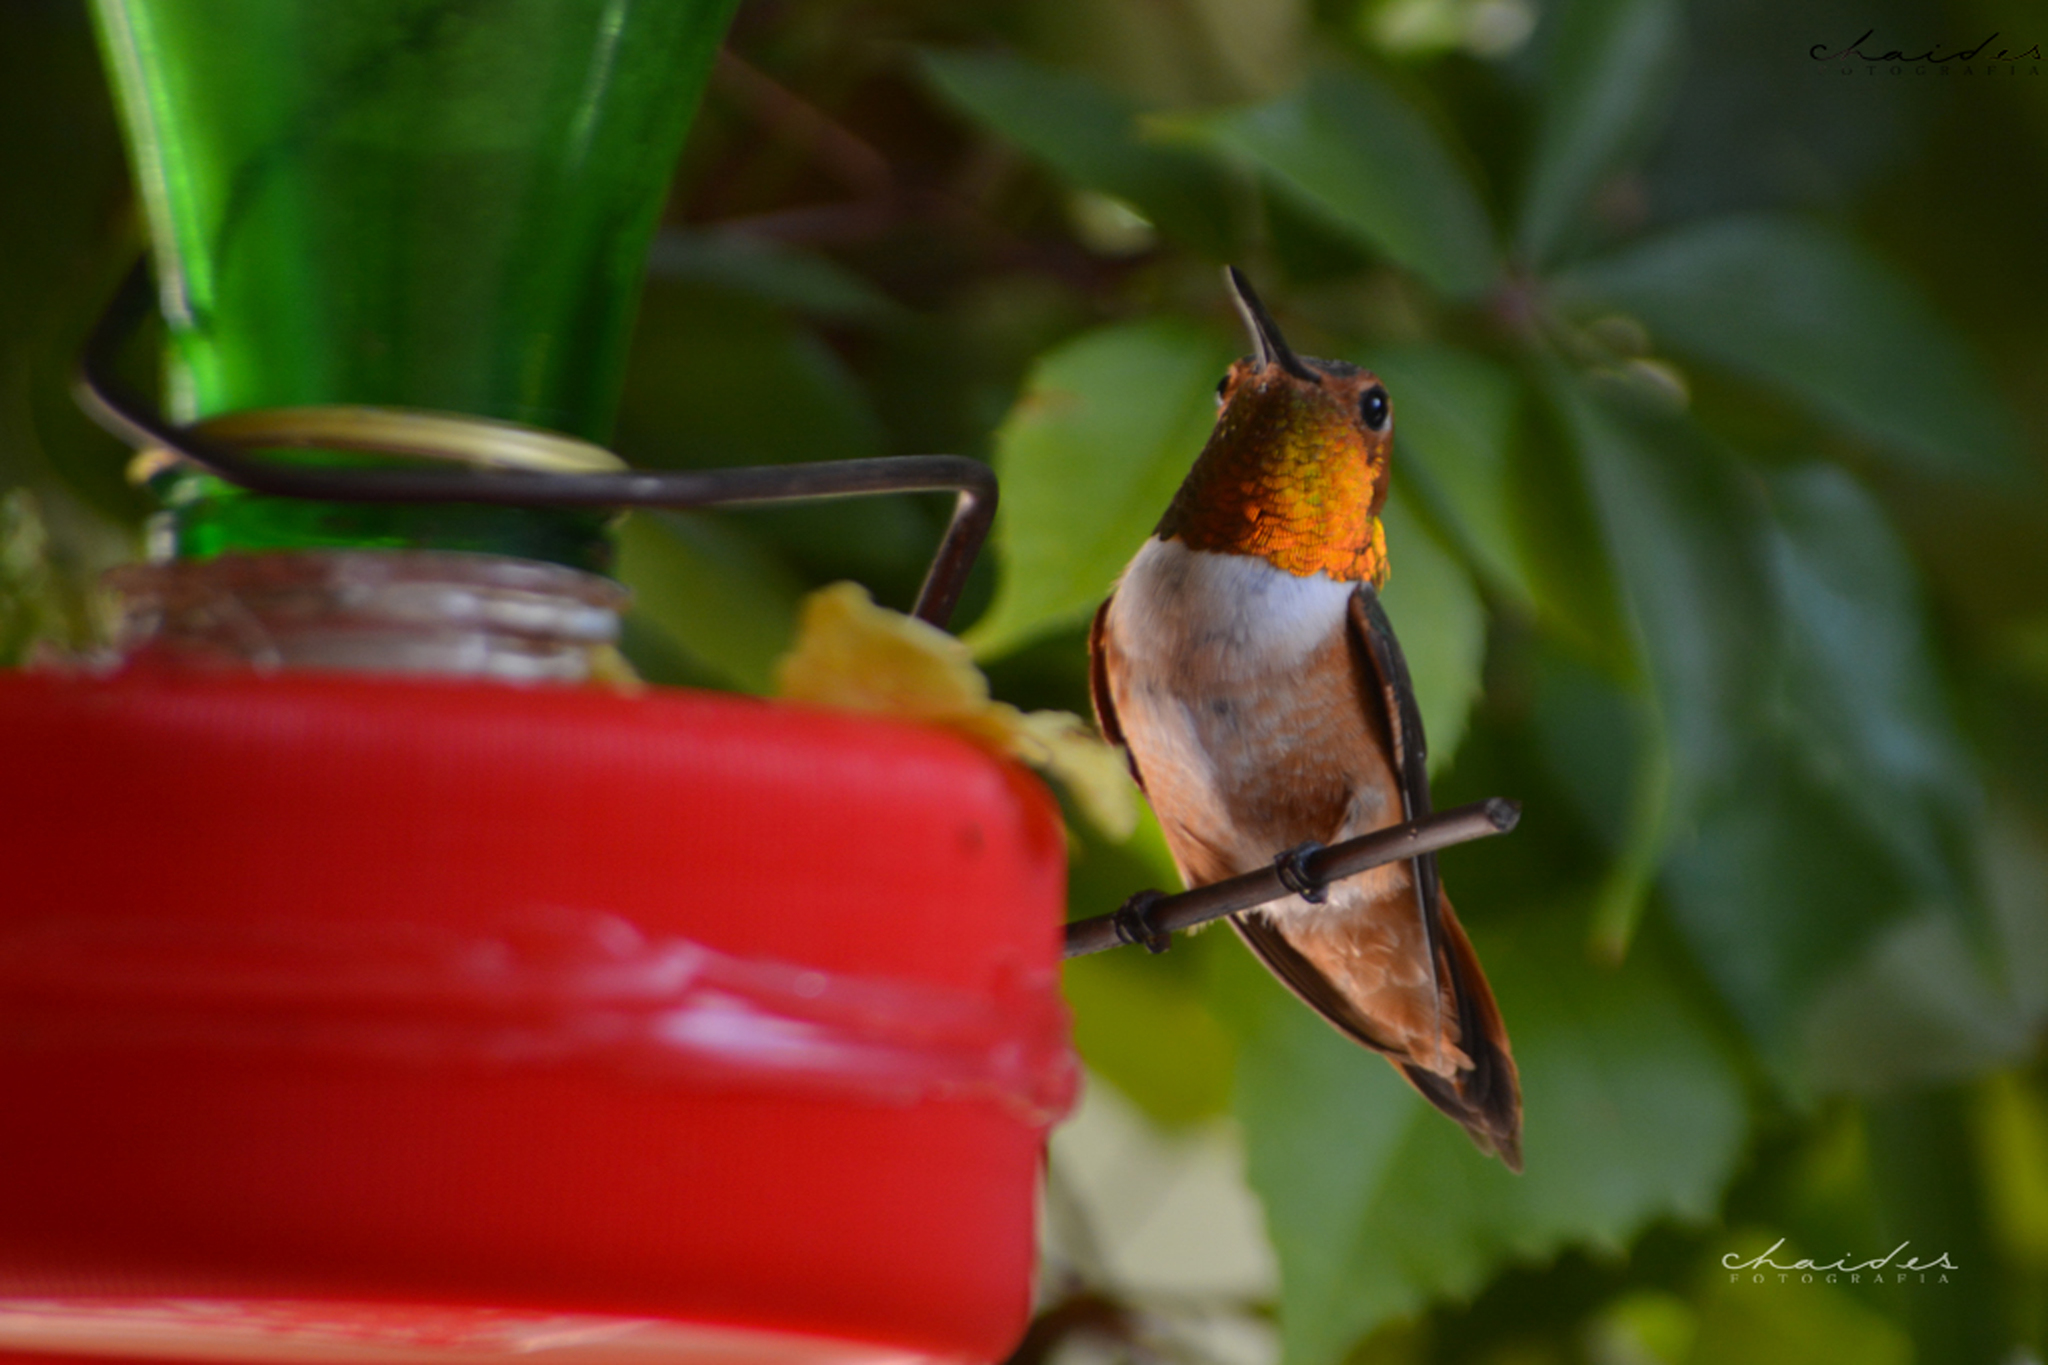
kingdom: Animalia
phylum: Chordata
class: Aves
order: Apodiformes
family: Trochilidae
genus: Selasphorus
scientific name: Selasphorus rufus
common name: Rufous hummingbird
